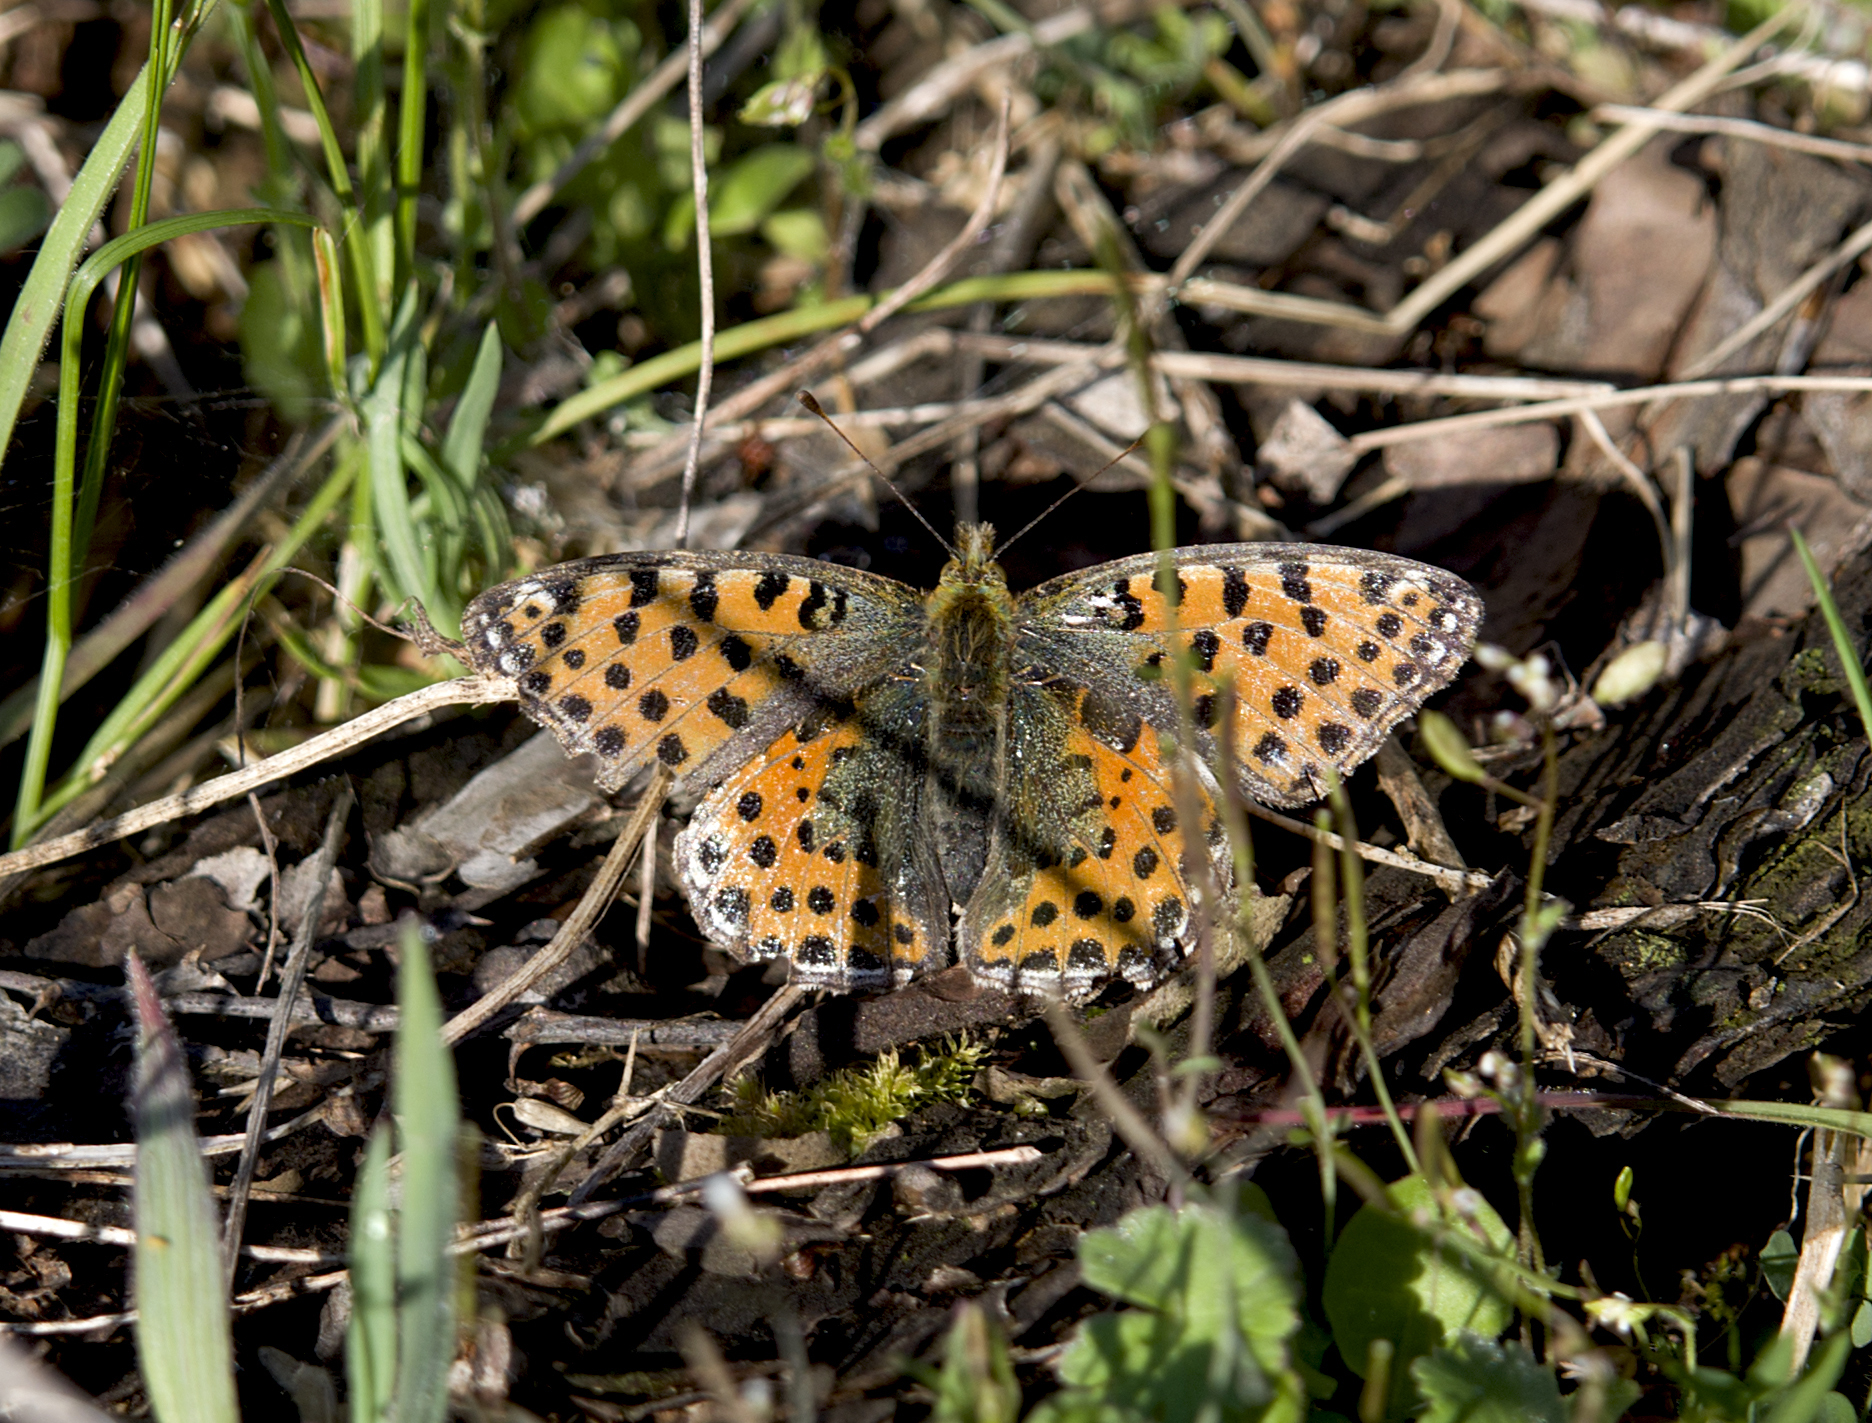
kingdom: Animalia
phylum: Arthropoda
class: Insecta
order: Lepidoptera
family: Nymphalidae
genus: Issoria
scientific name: Issoria lathonia
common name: Queen of spain fritillary
